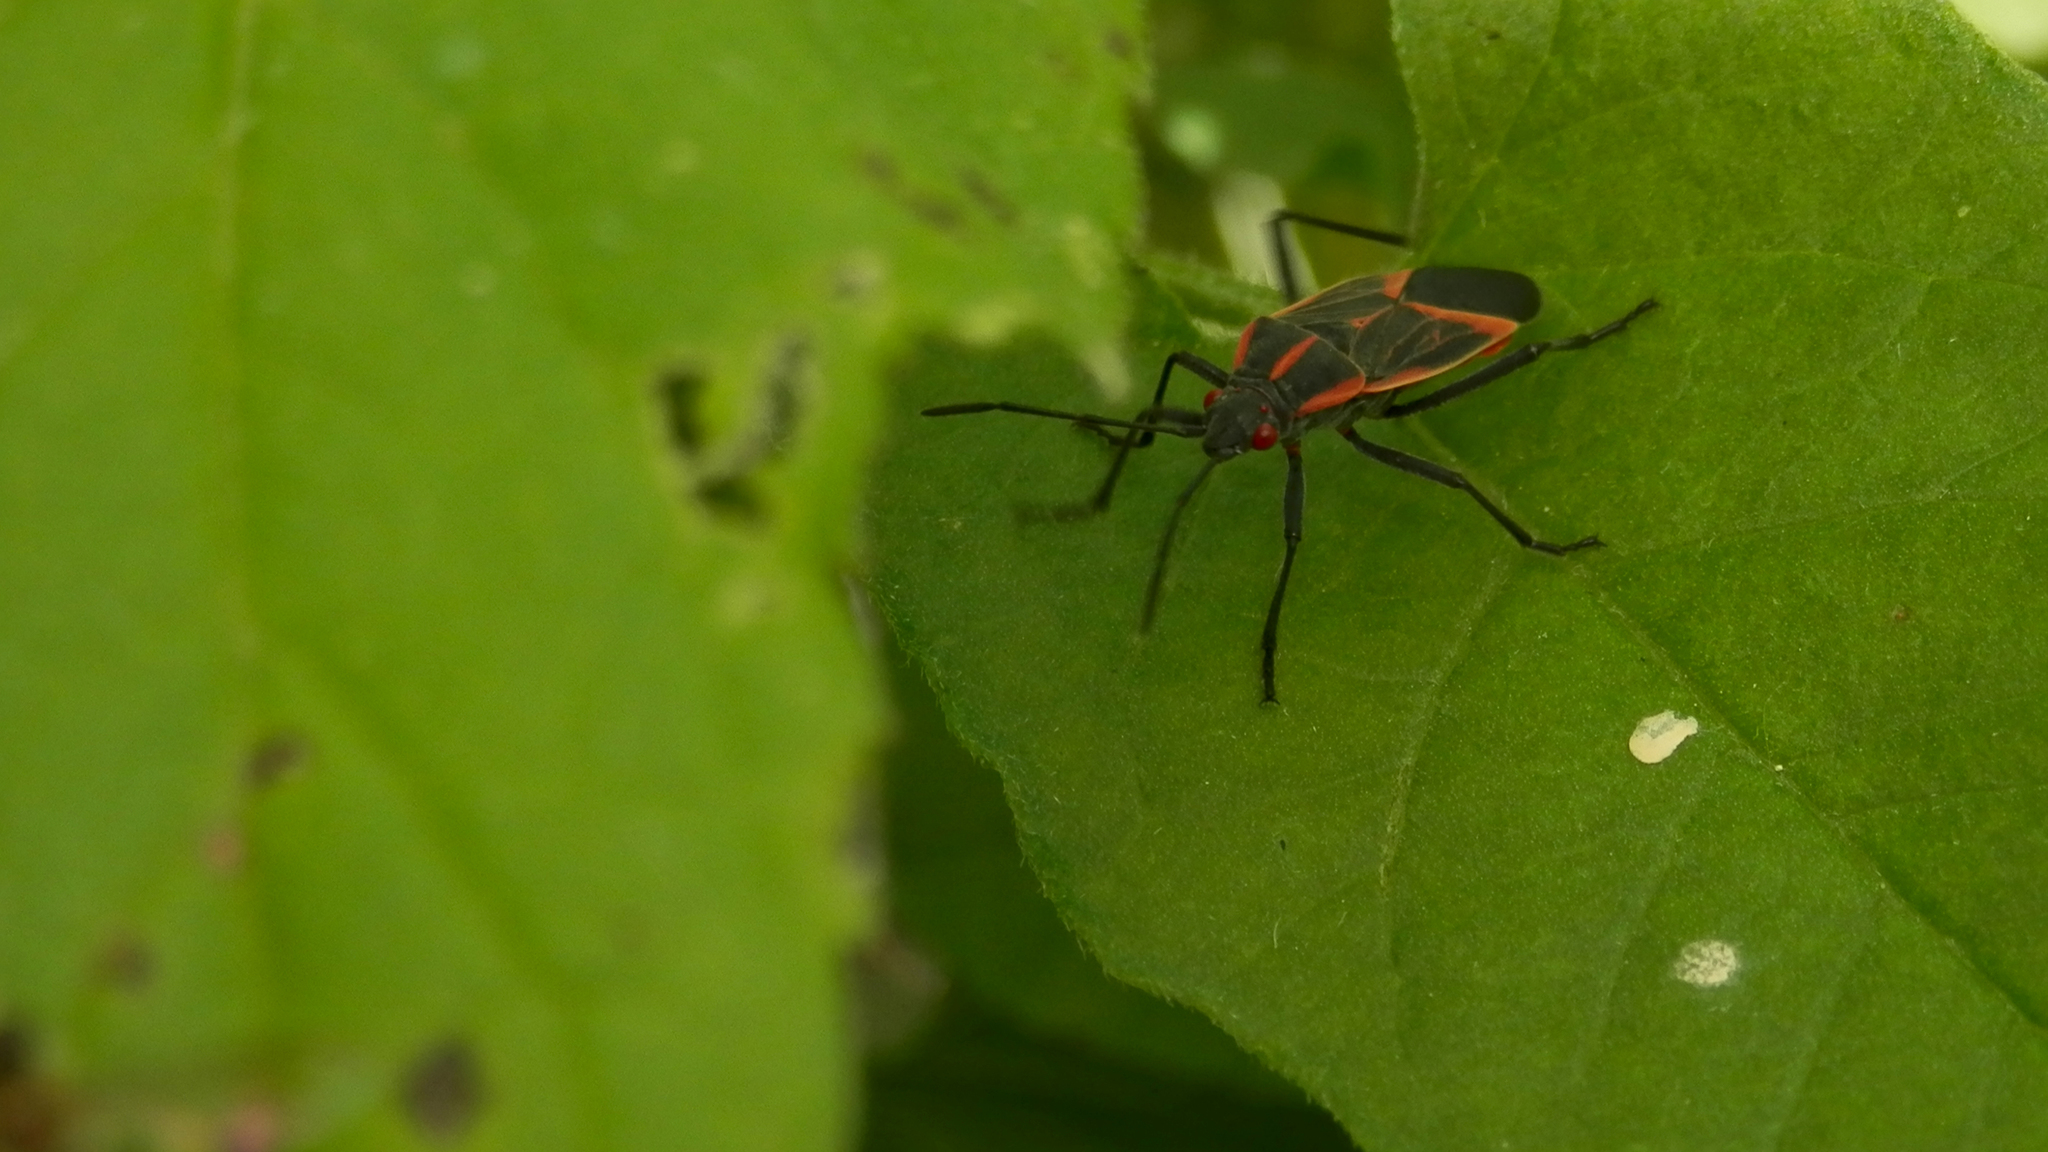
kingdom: Animalia
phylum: Arthropoda
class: Insecta
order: Hemiptera
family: Rhopalidae
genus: Boisea
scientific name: Boisea trivittata
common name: Boxelder bug
